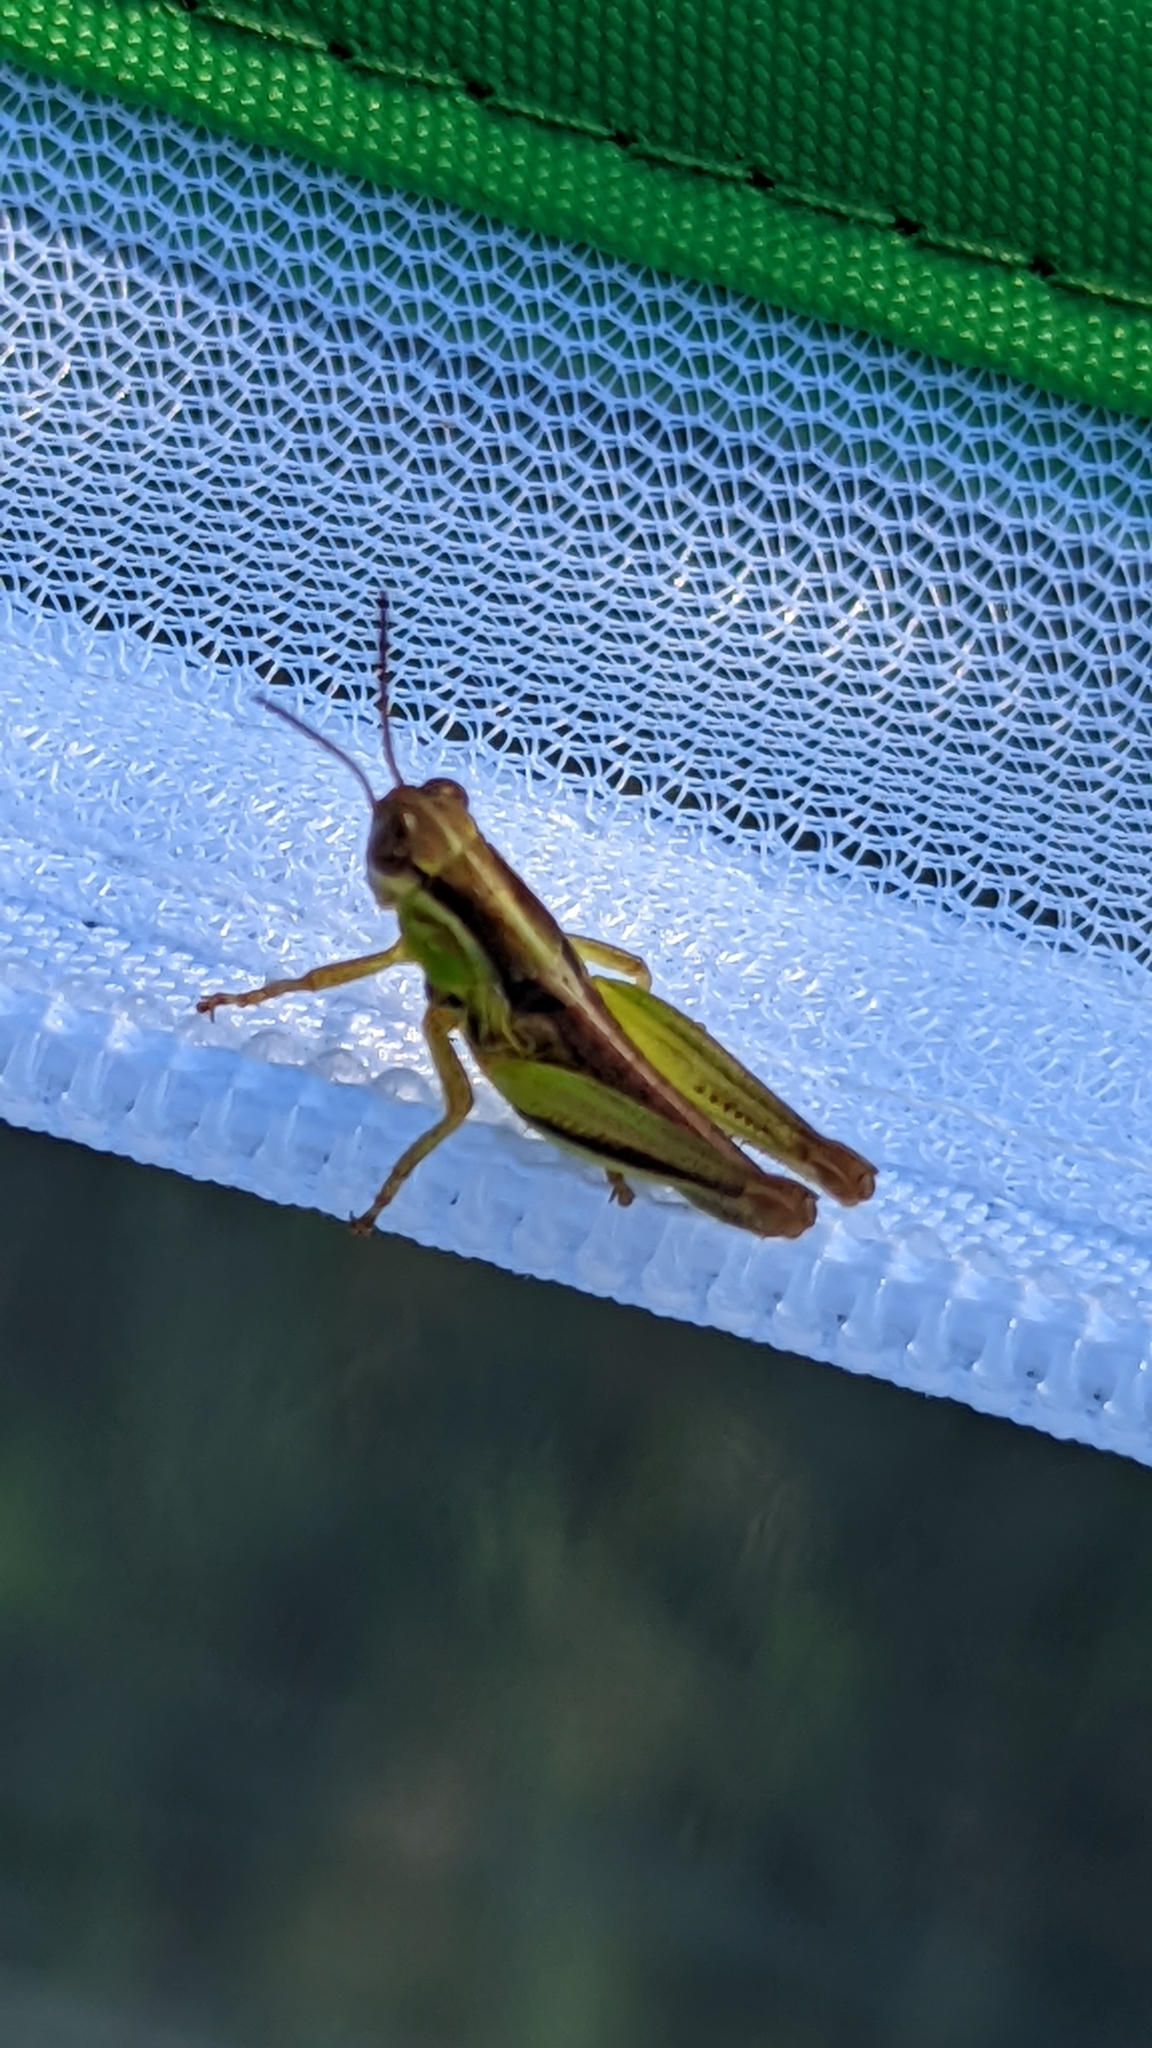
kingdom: Animalia
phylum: Arthropoda
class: Insecta
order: Orthoptera
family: Acrididae
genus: Melanoplus
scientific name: Melanoplus
